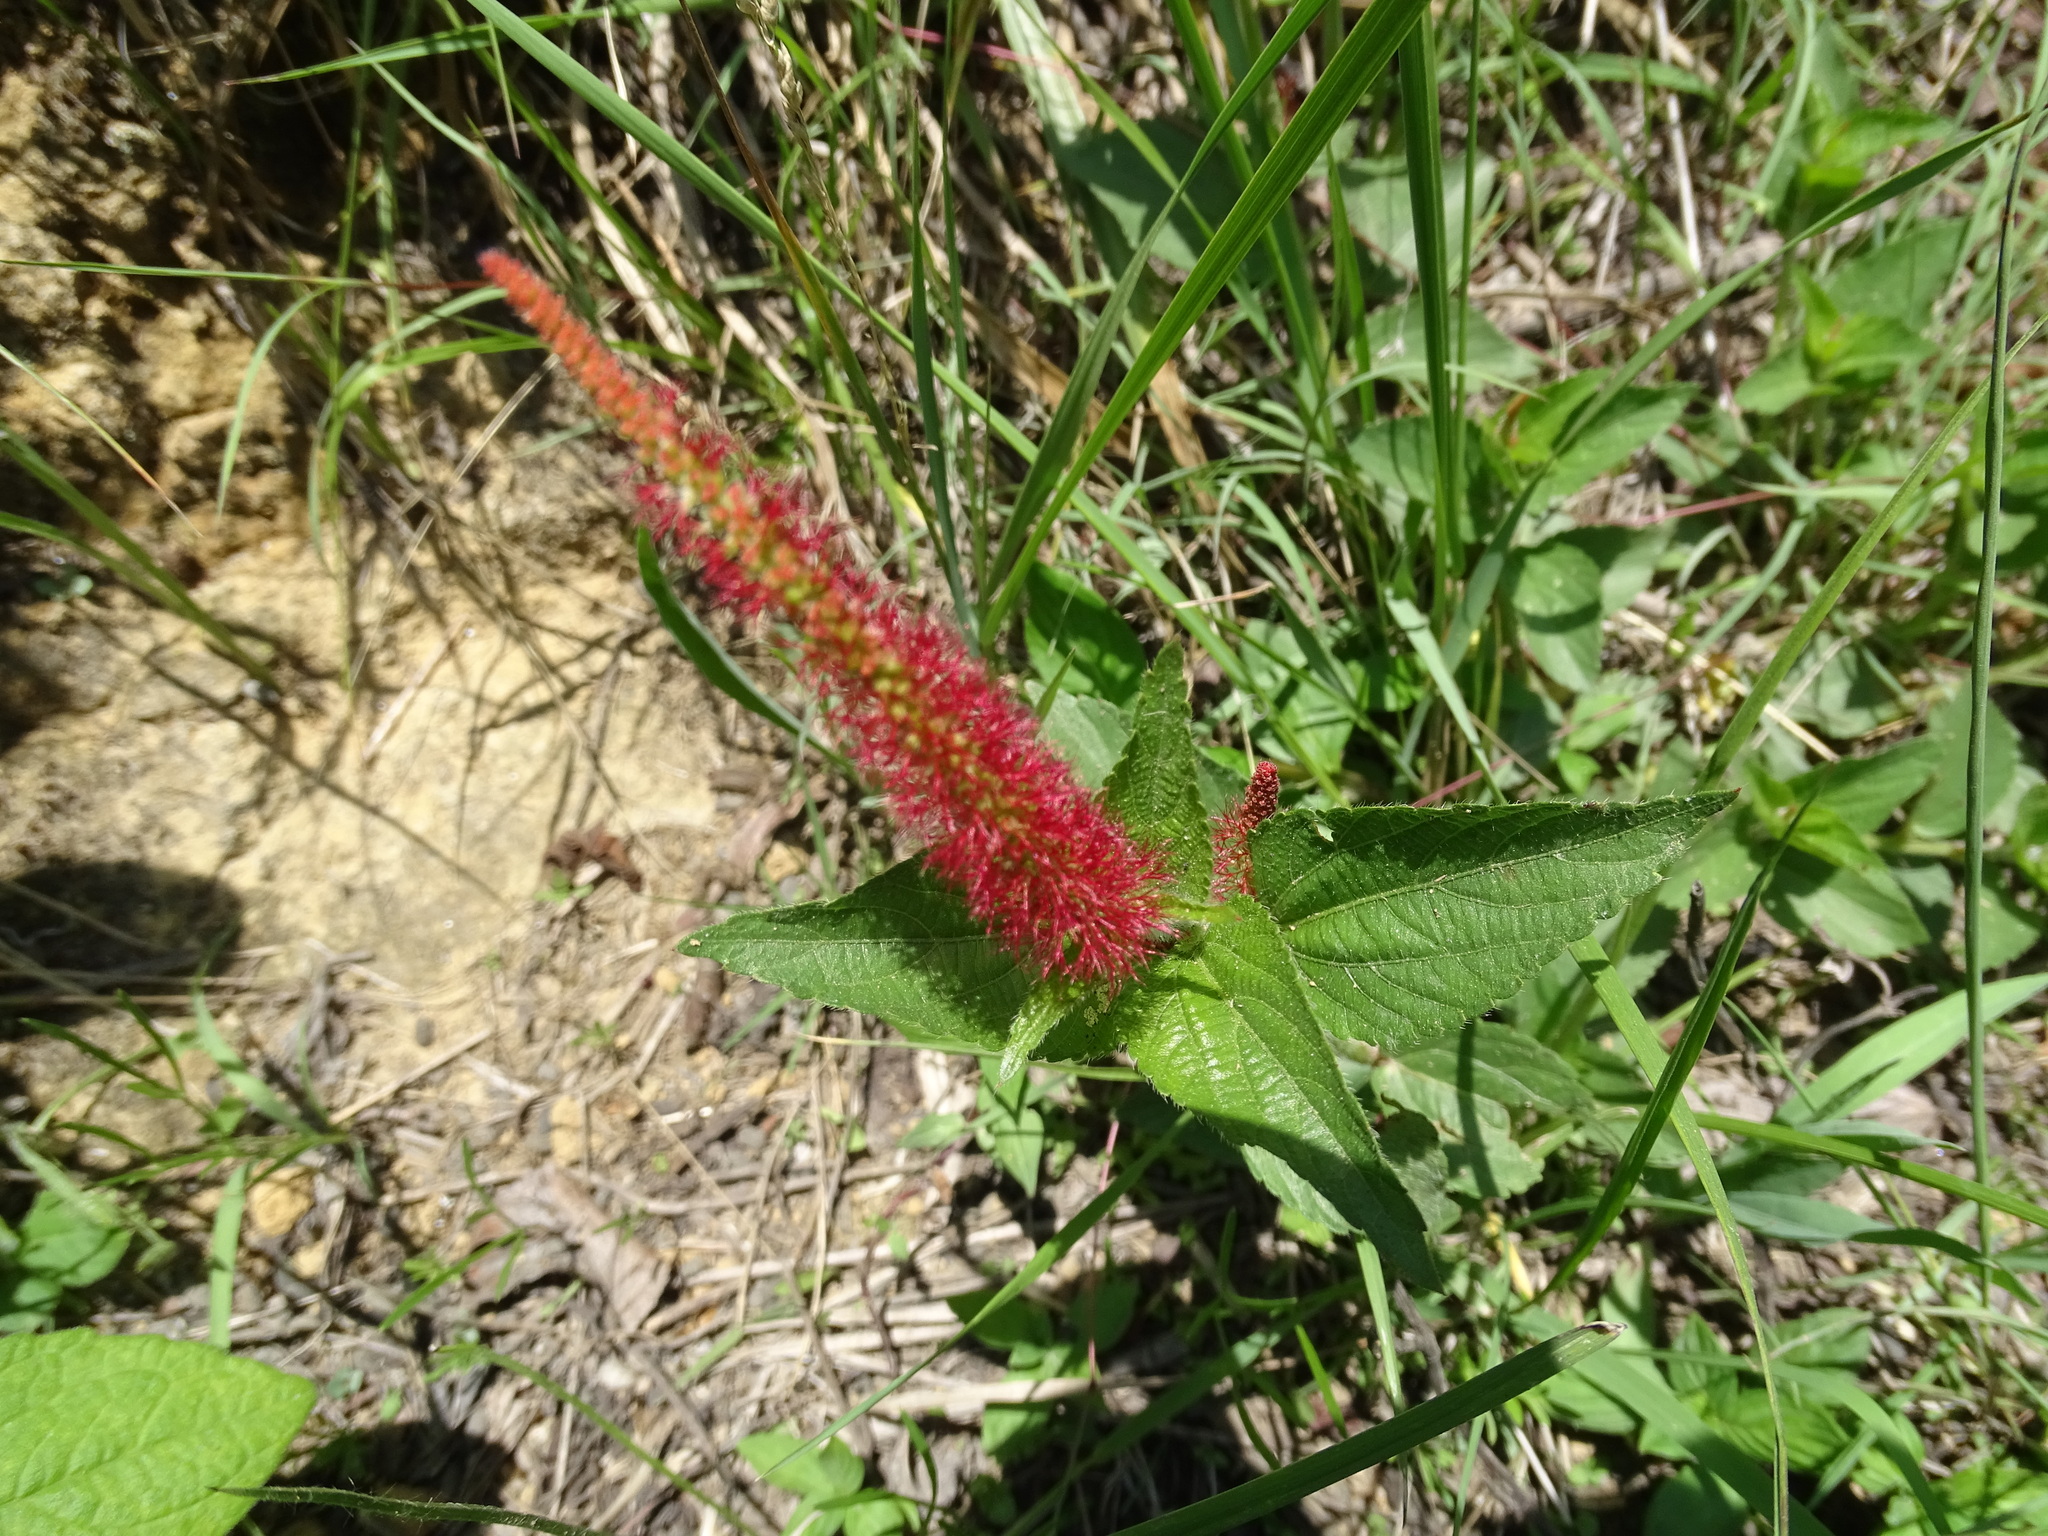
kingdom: Plantae
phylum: Tracheophyta
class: Magnoliopsida
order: Malpighiales
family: Euphorbiaceae
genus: Acalypha
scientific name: Acalypha phleoides
